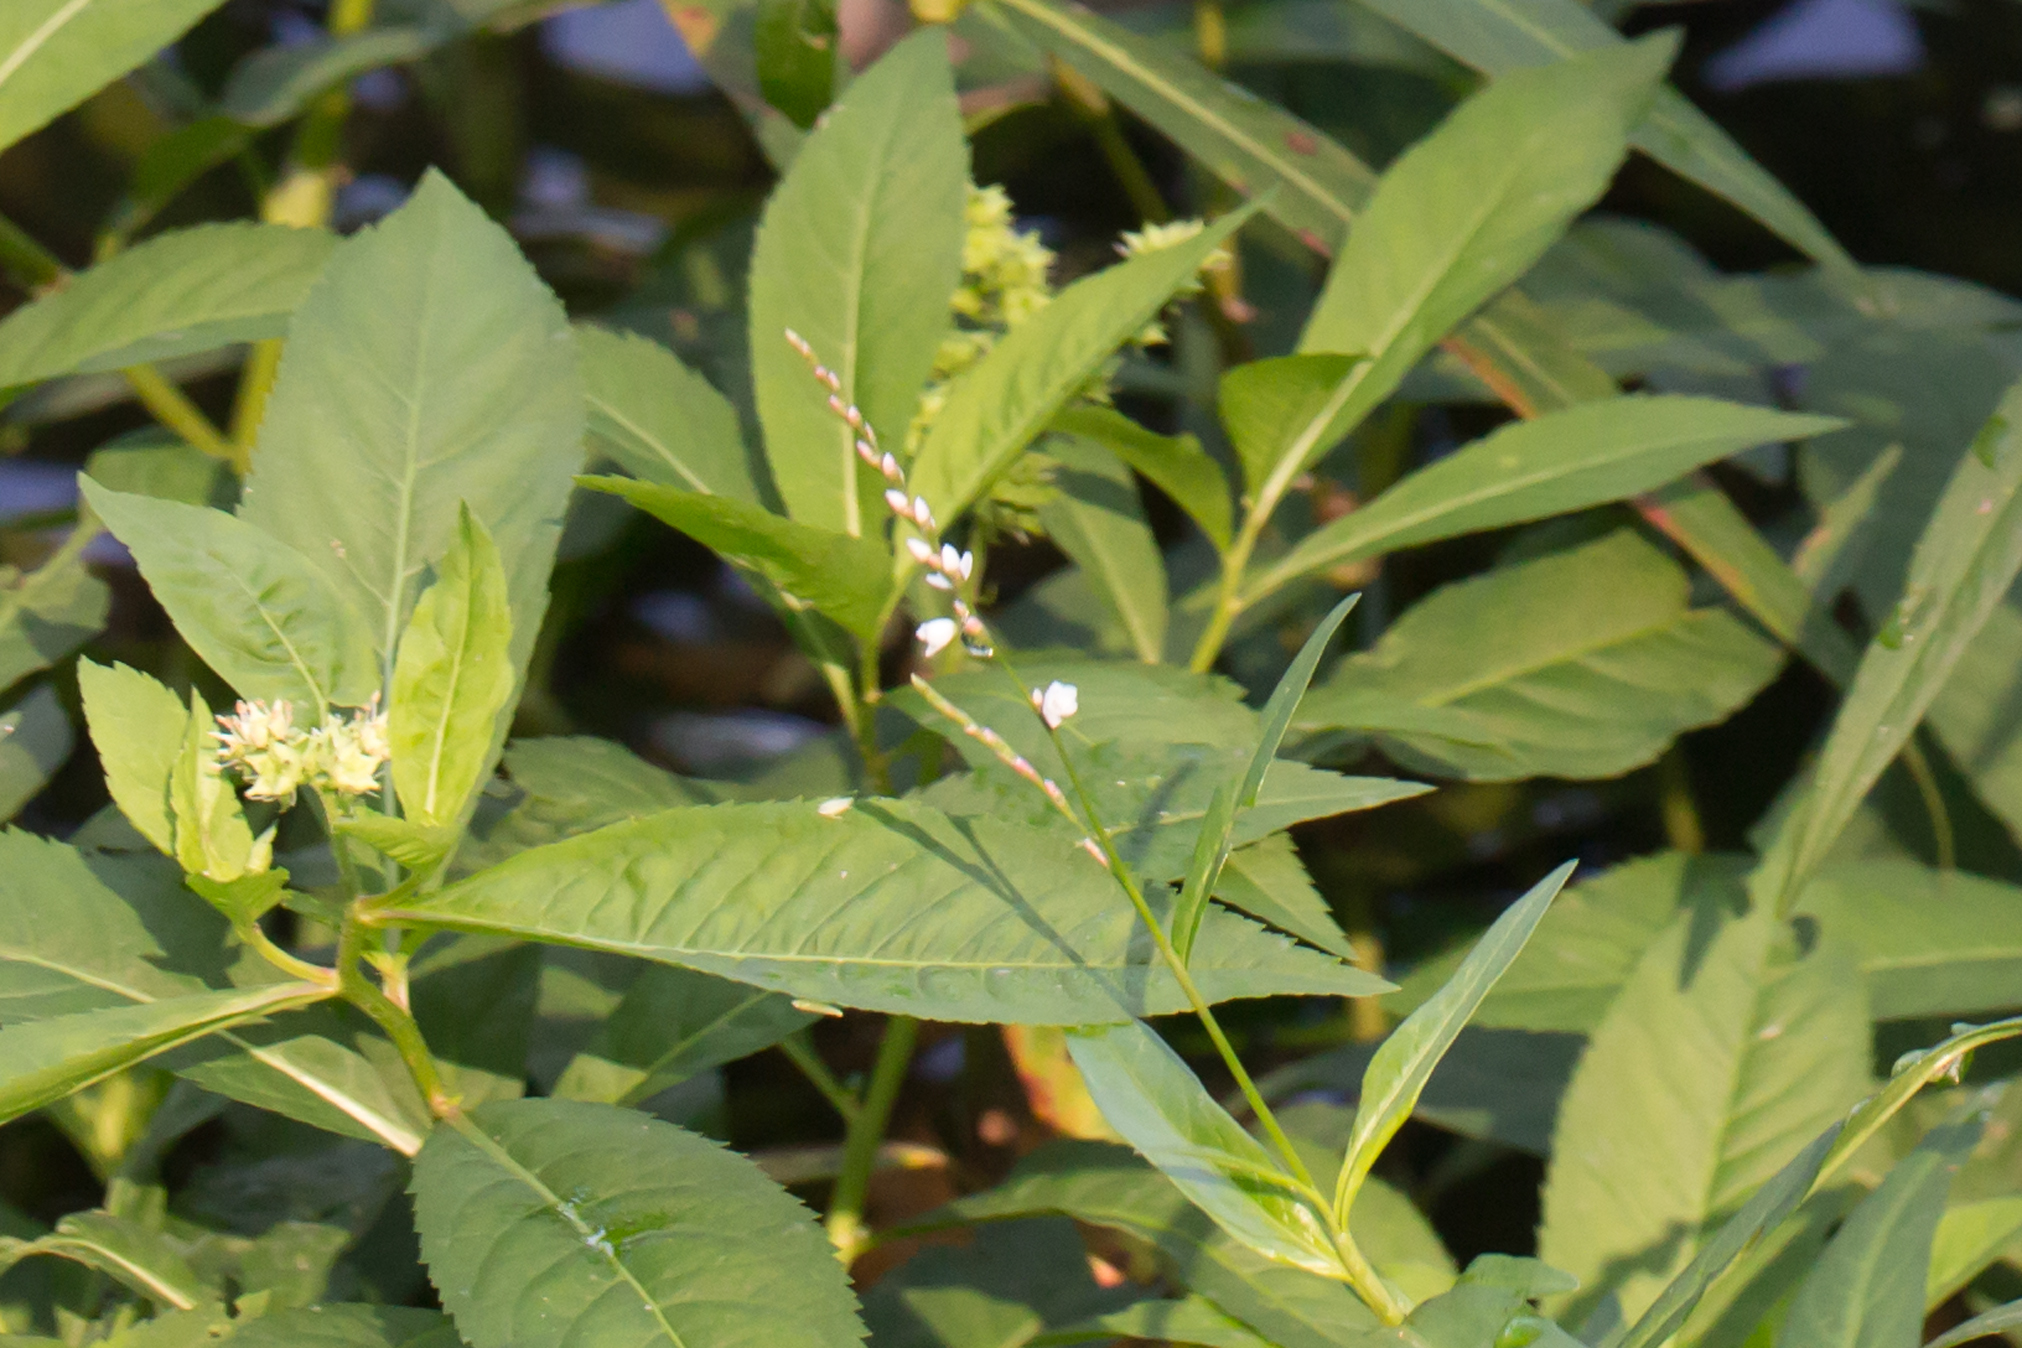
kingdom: Plantae
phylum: Tracheophyta
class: Magnoliopsida
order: Saxifragales
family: Penthoraceae
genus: Penthorum
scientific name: Penthorum sedoides
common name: Ditch stonecrop
